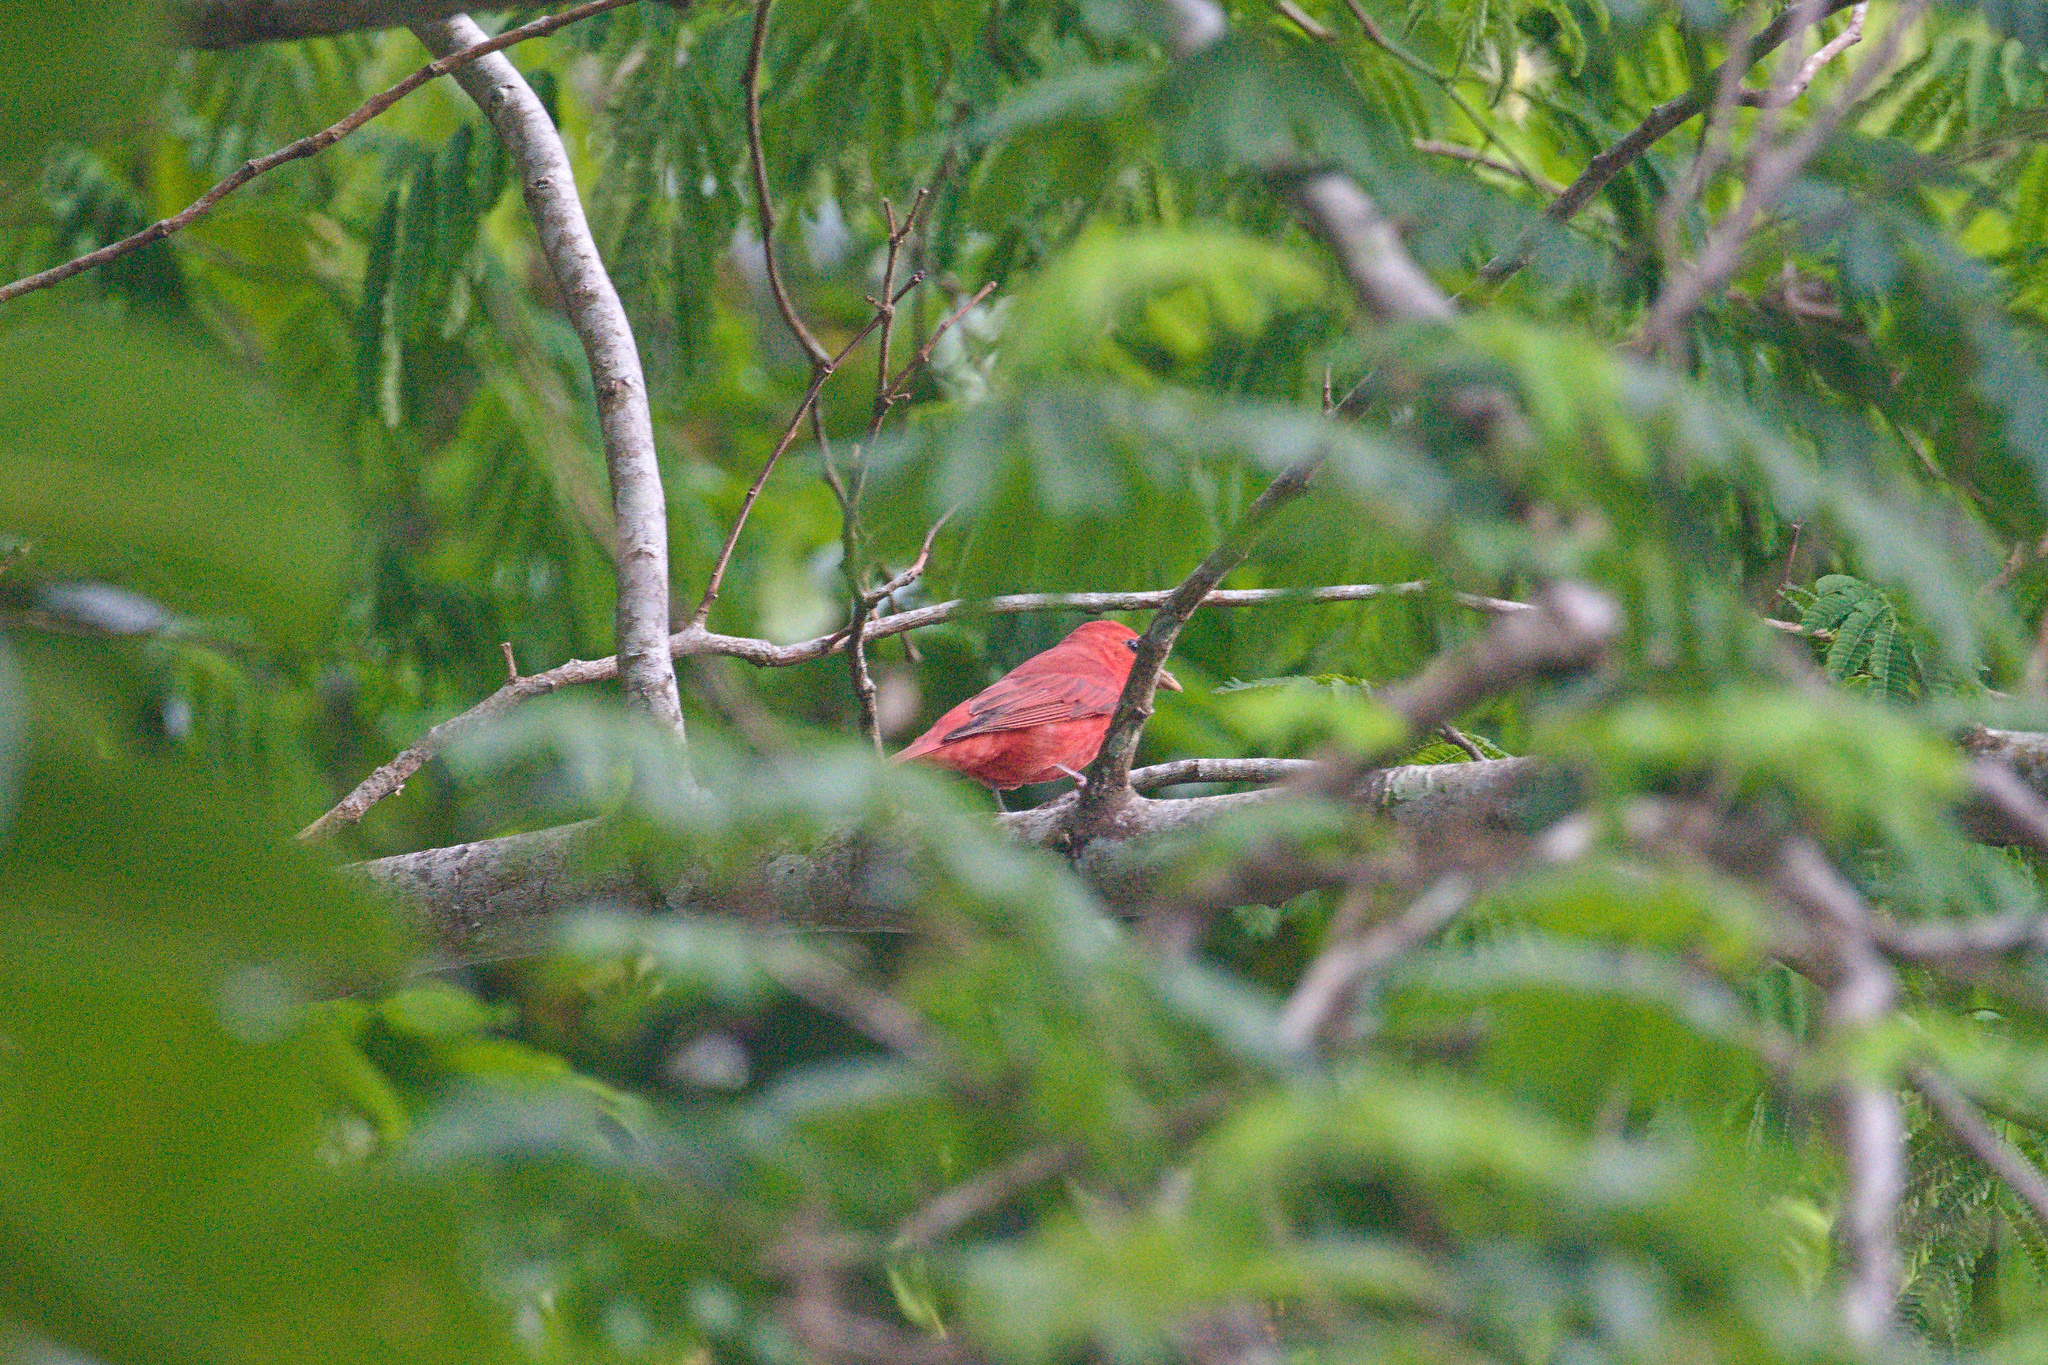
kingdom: Animalia
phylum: Chordata
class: Aves
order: Passeriformes
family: Cardinalidae
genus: Piranga
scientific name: Piranga rubra
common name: Summer tanager
